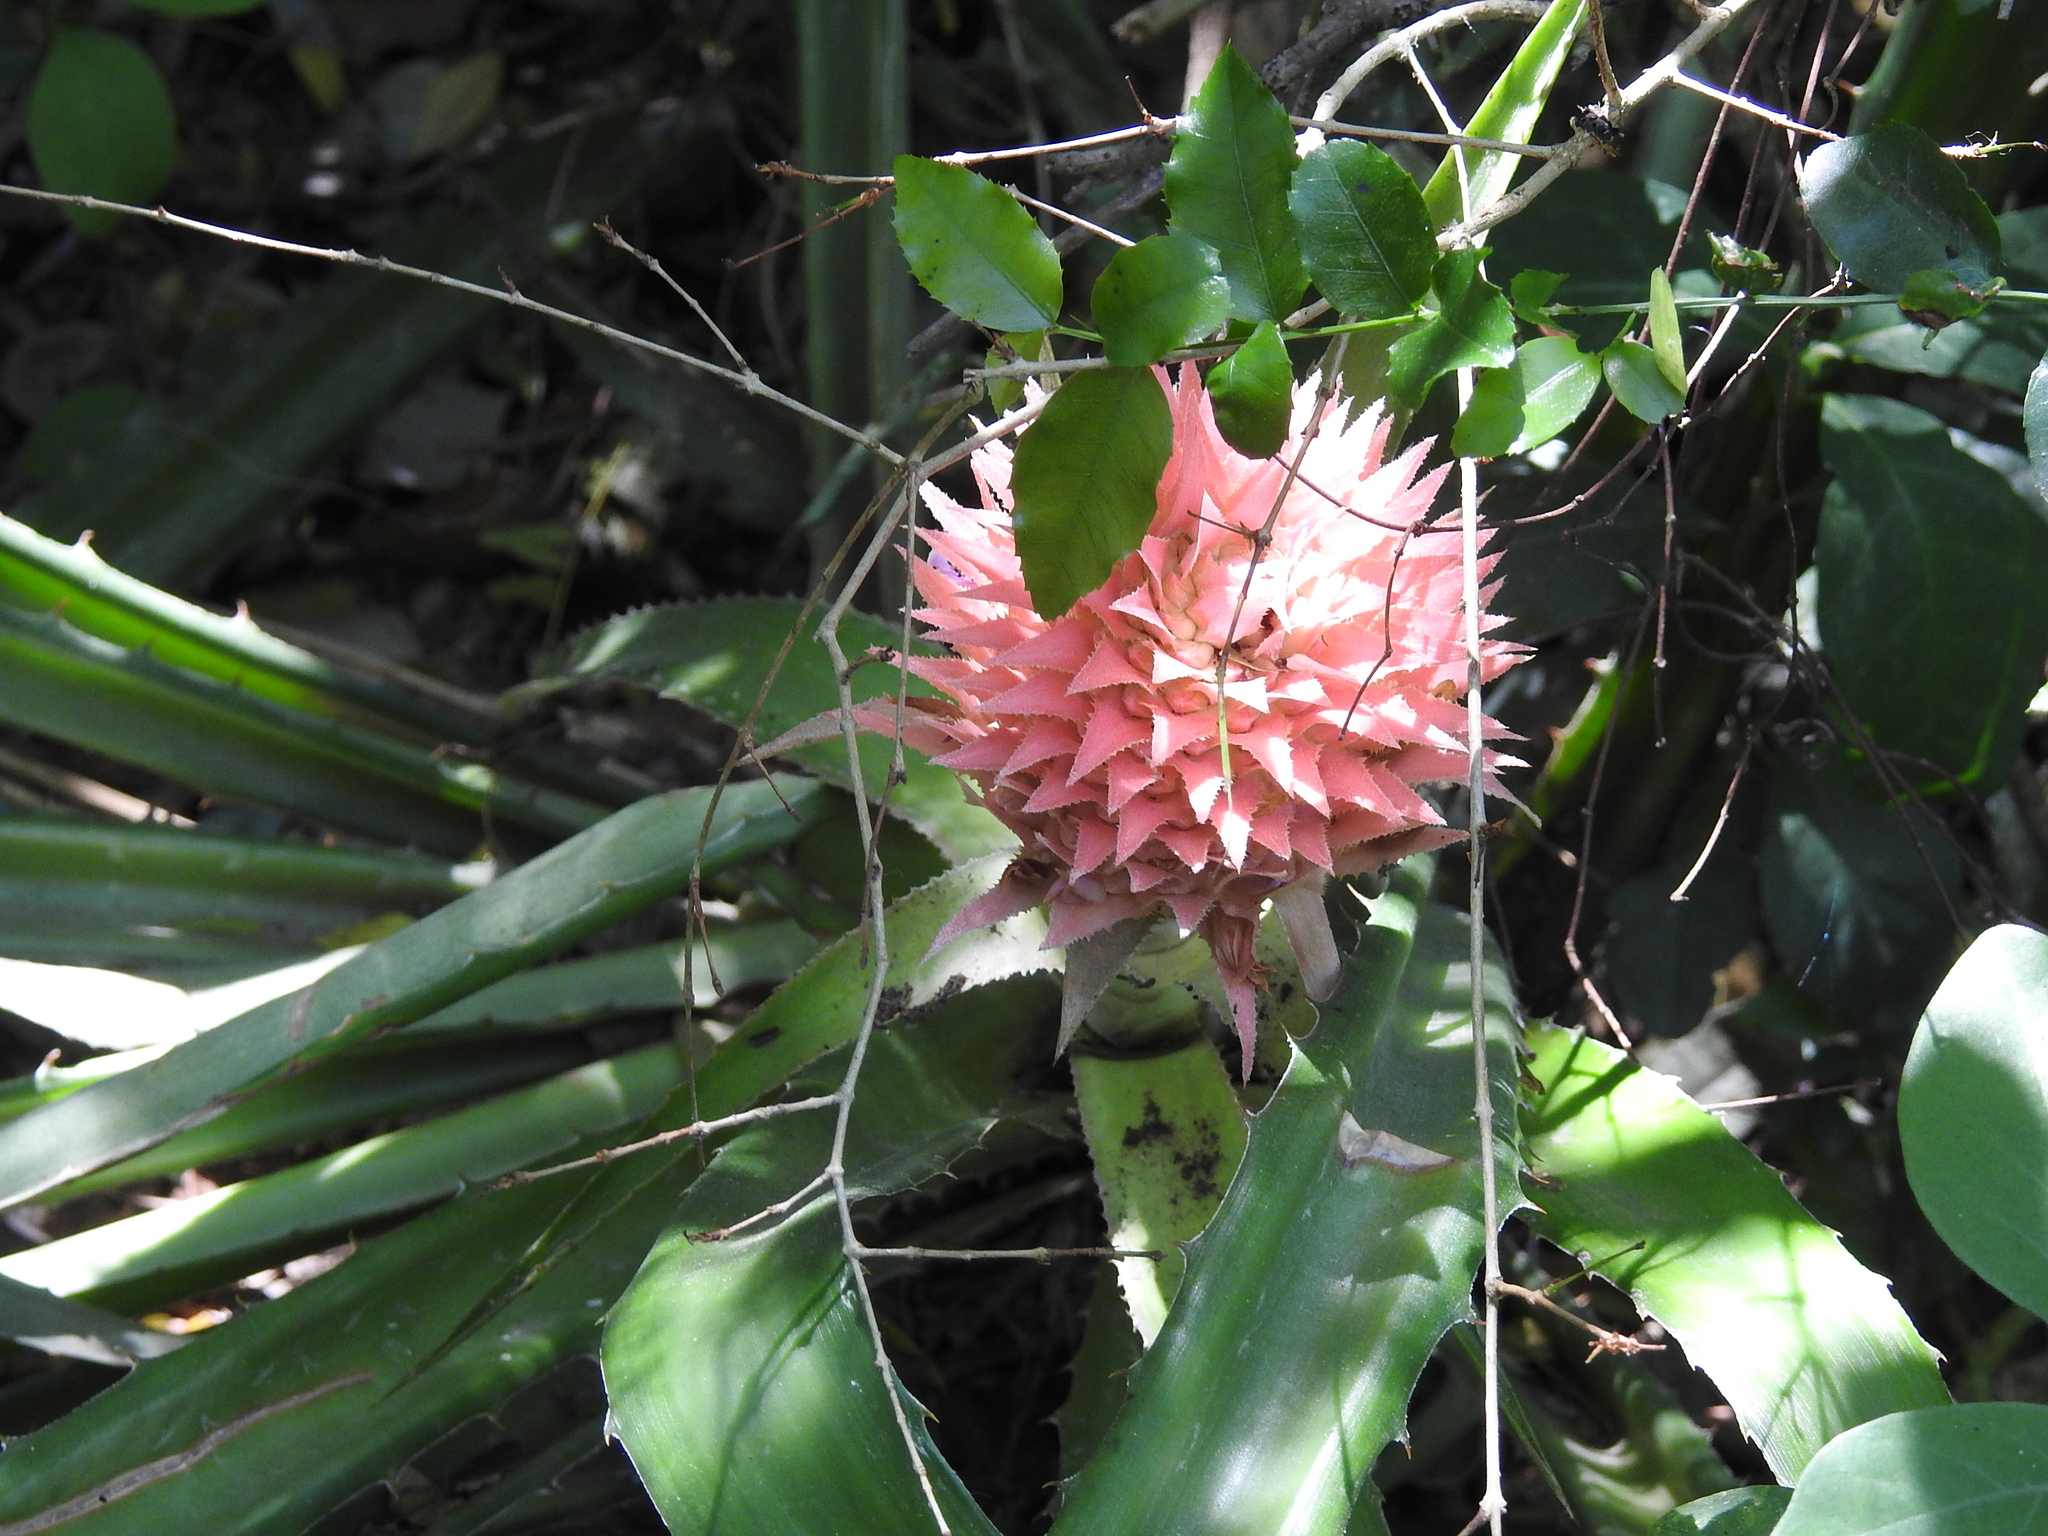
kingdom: Plantae
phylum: Tracheophyta
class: Liliopsida
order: Poales
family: Bromeliaceae
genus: Ananas
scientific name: Ananas macrodontes
